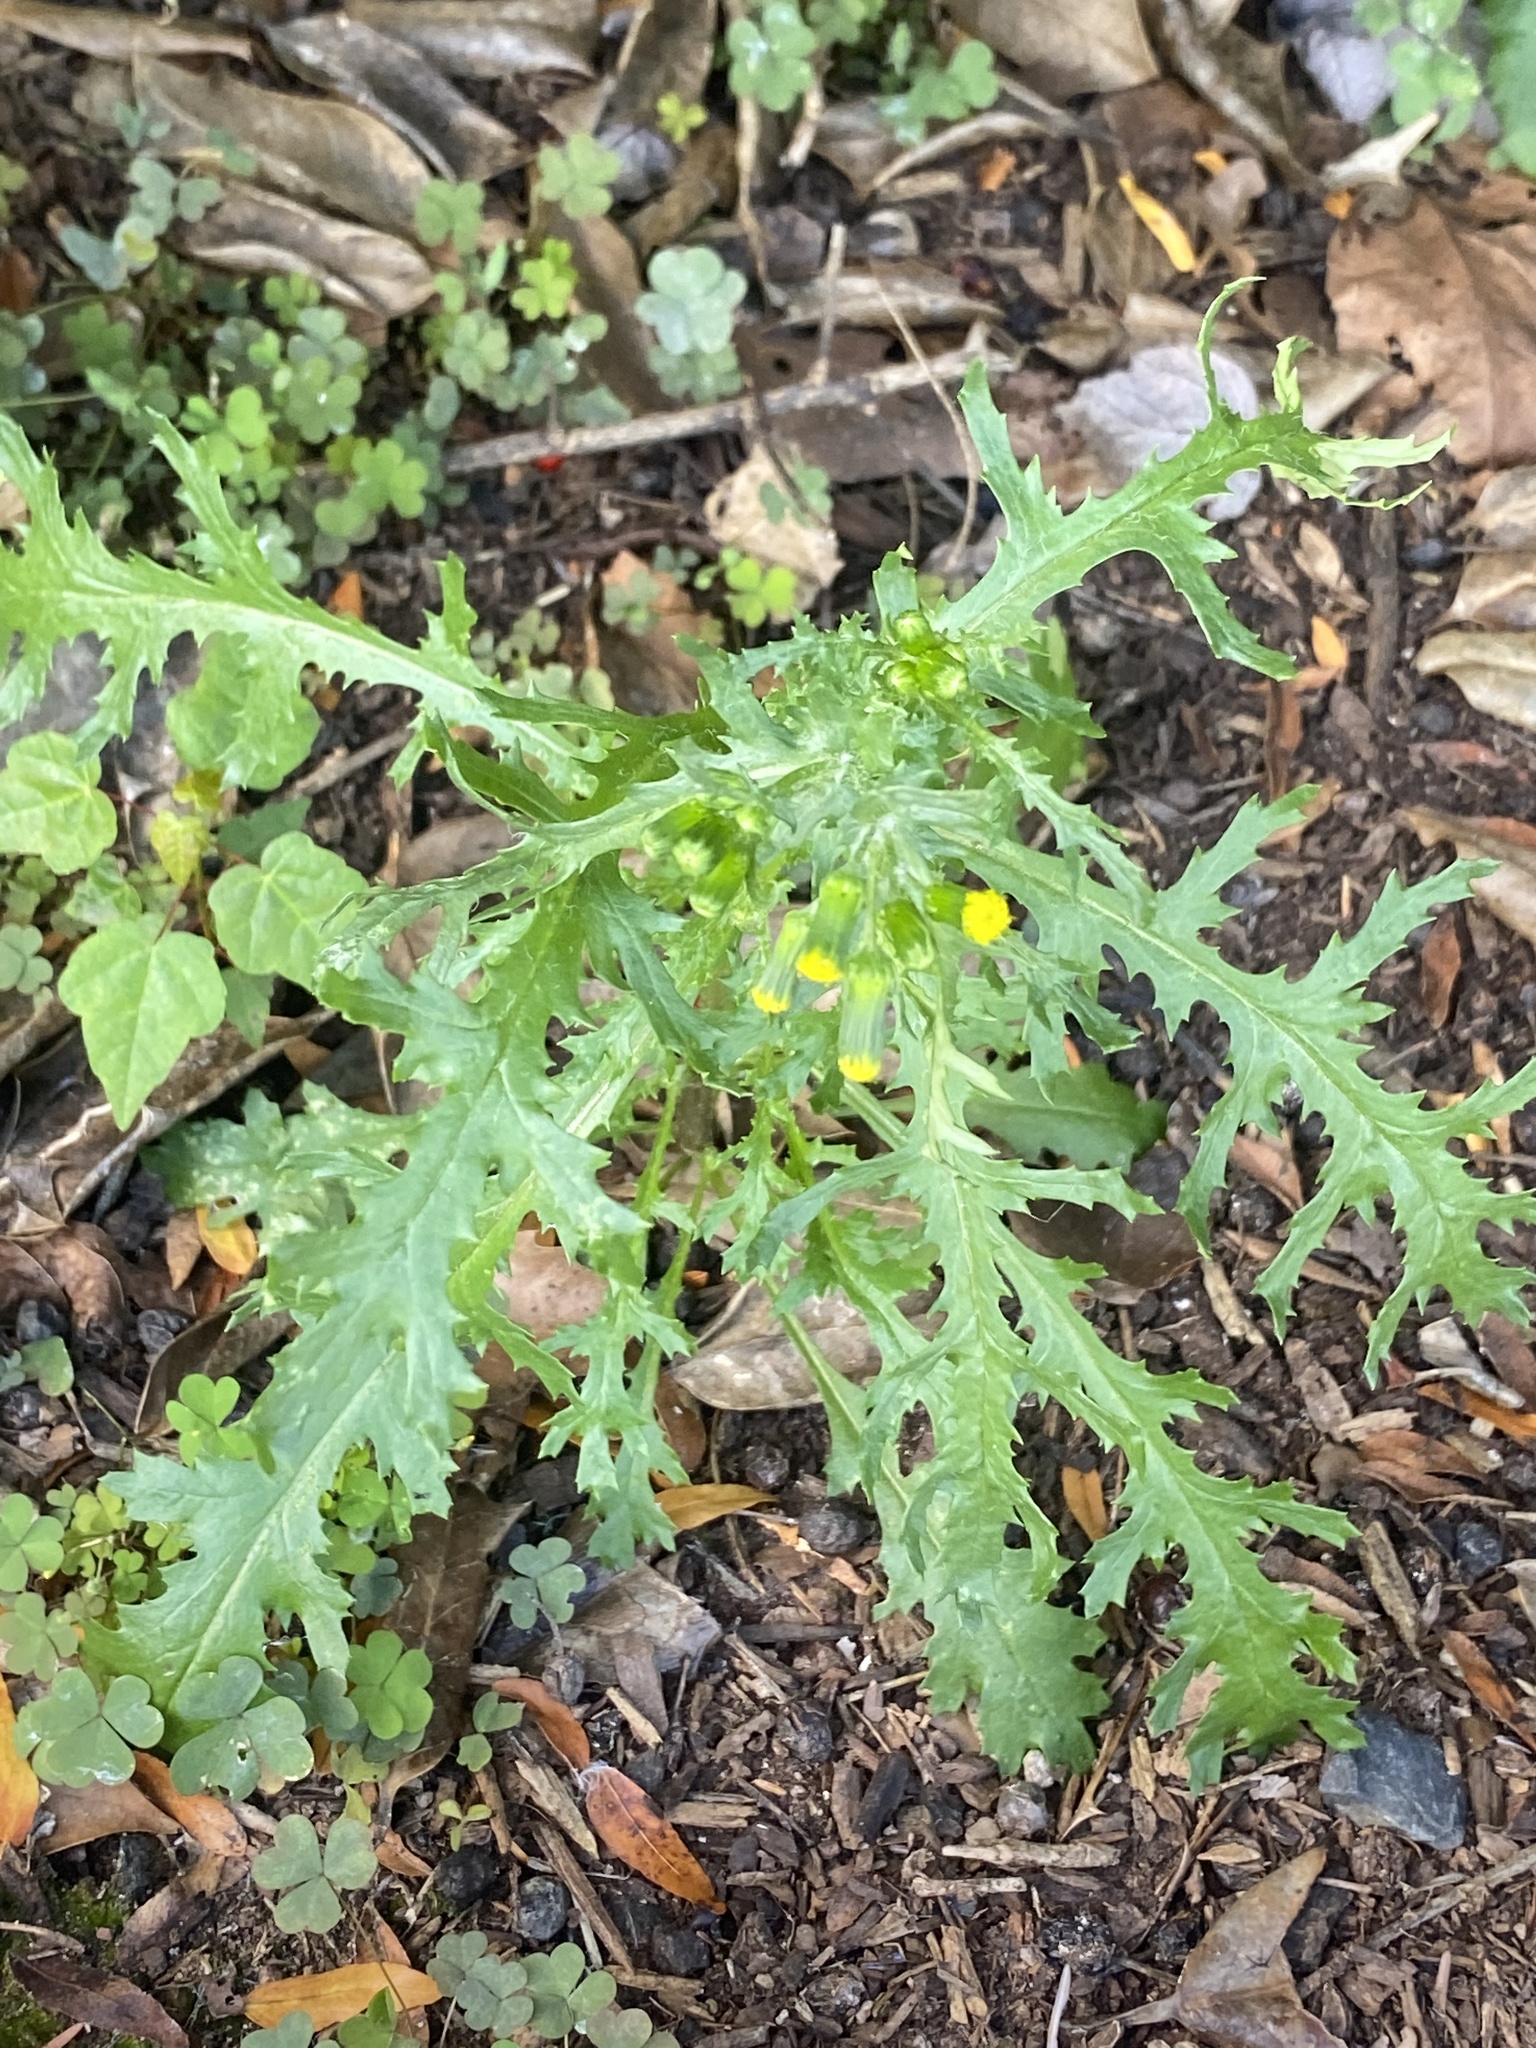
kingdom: Plantae
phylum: Tracheophyta
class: Magnoliopsida
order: Asterales
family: Asteraceae
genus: Senecio
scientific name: Senecio vulgaris
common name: Old-man-in-the-spring
